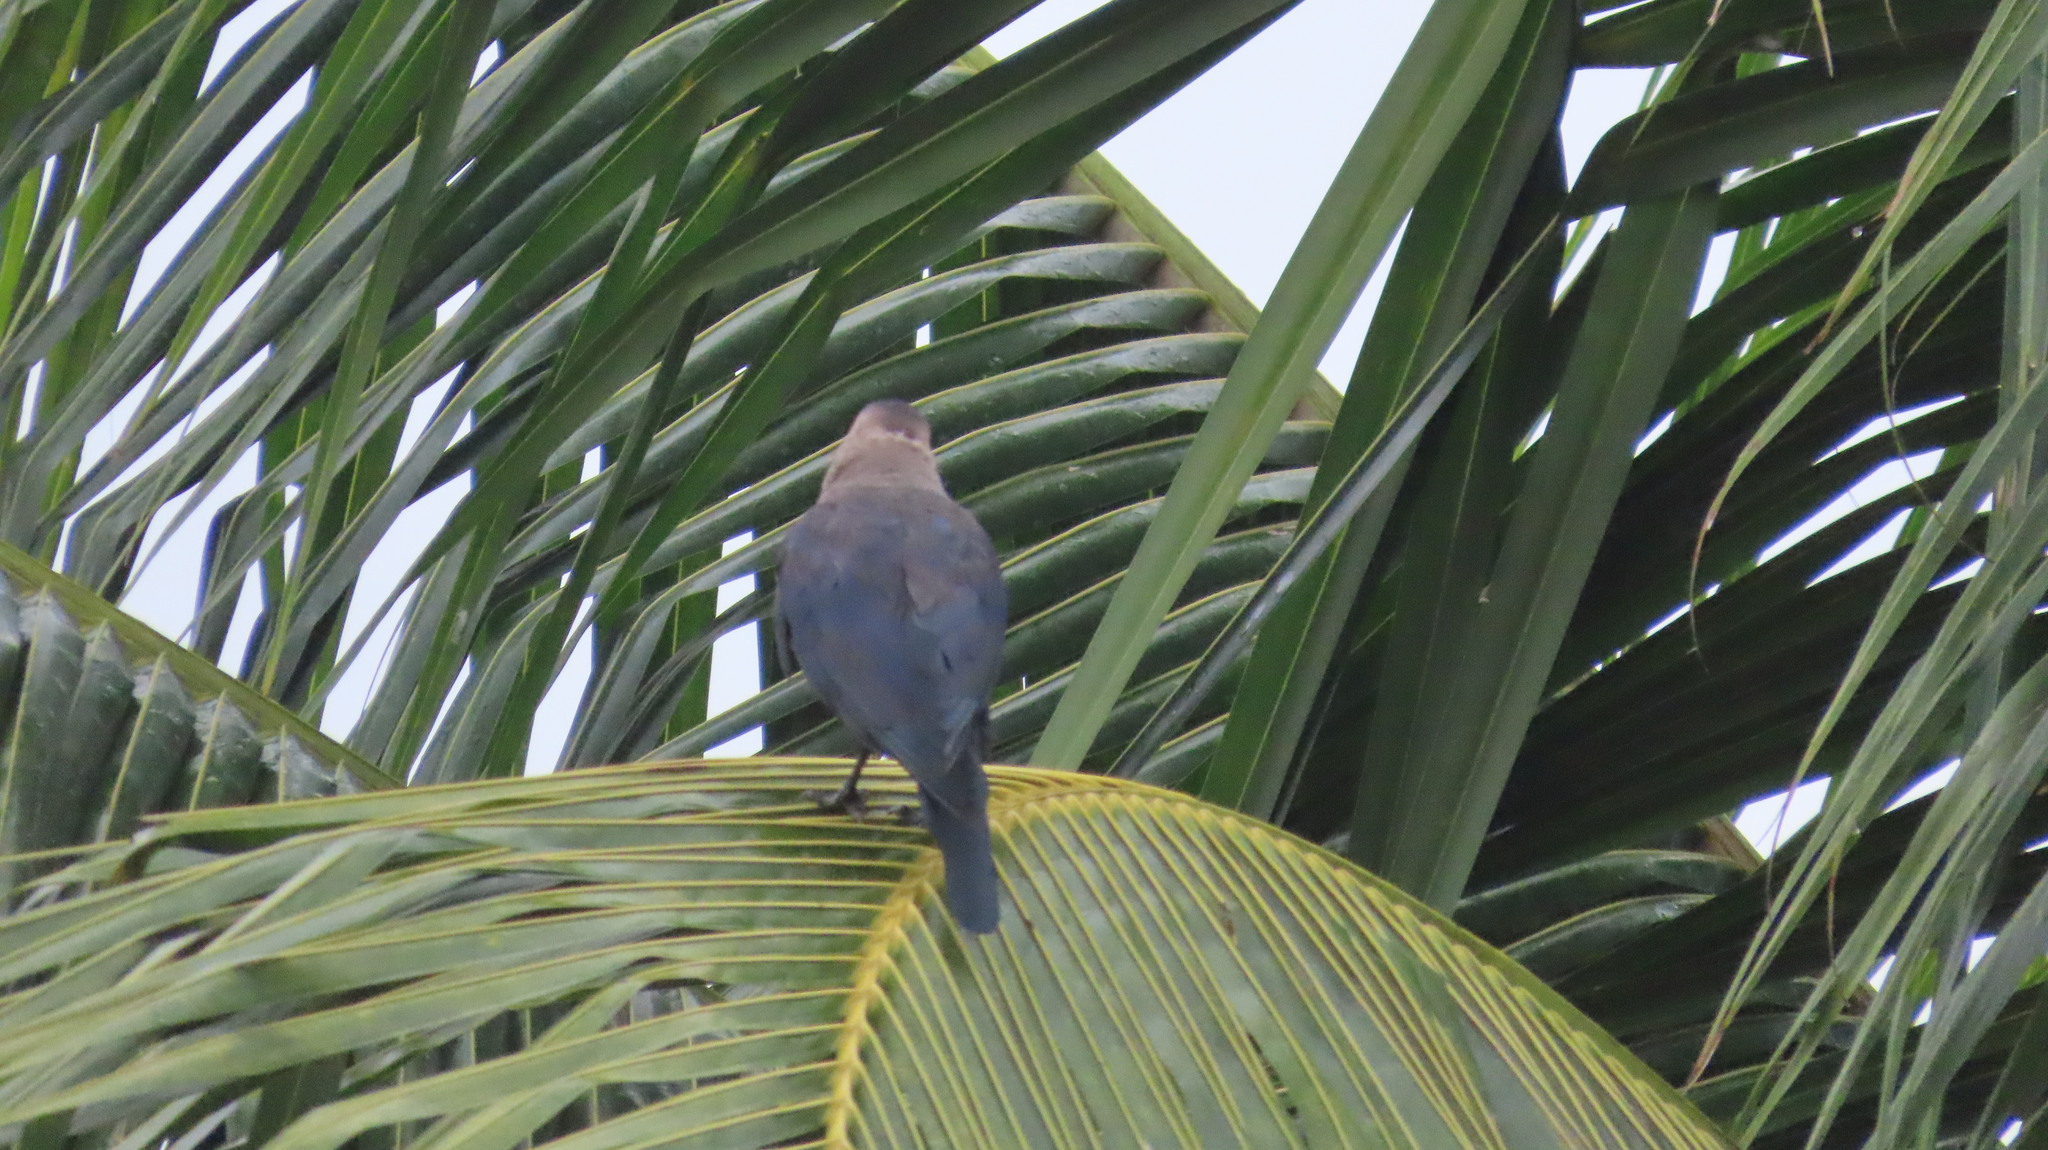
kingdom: Animalia
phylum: Chordata
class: Aves
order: Passeriformes
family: Corvidae
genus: Corvus
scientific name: Corvus splendens
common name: House crow
